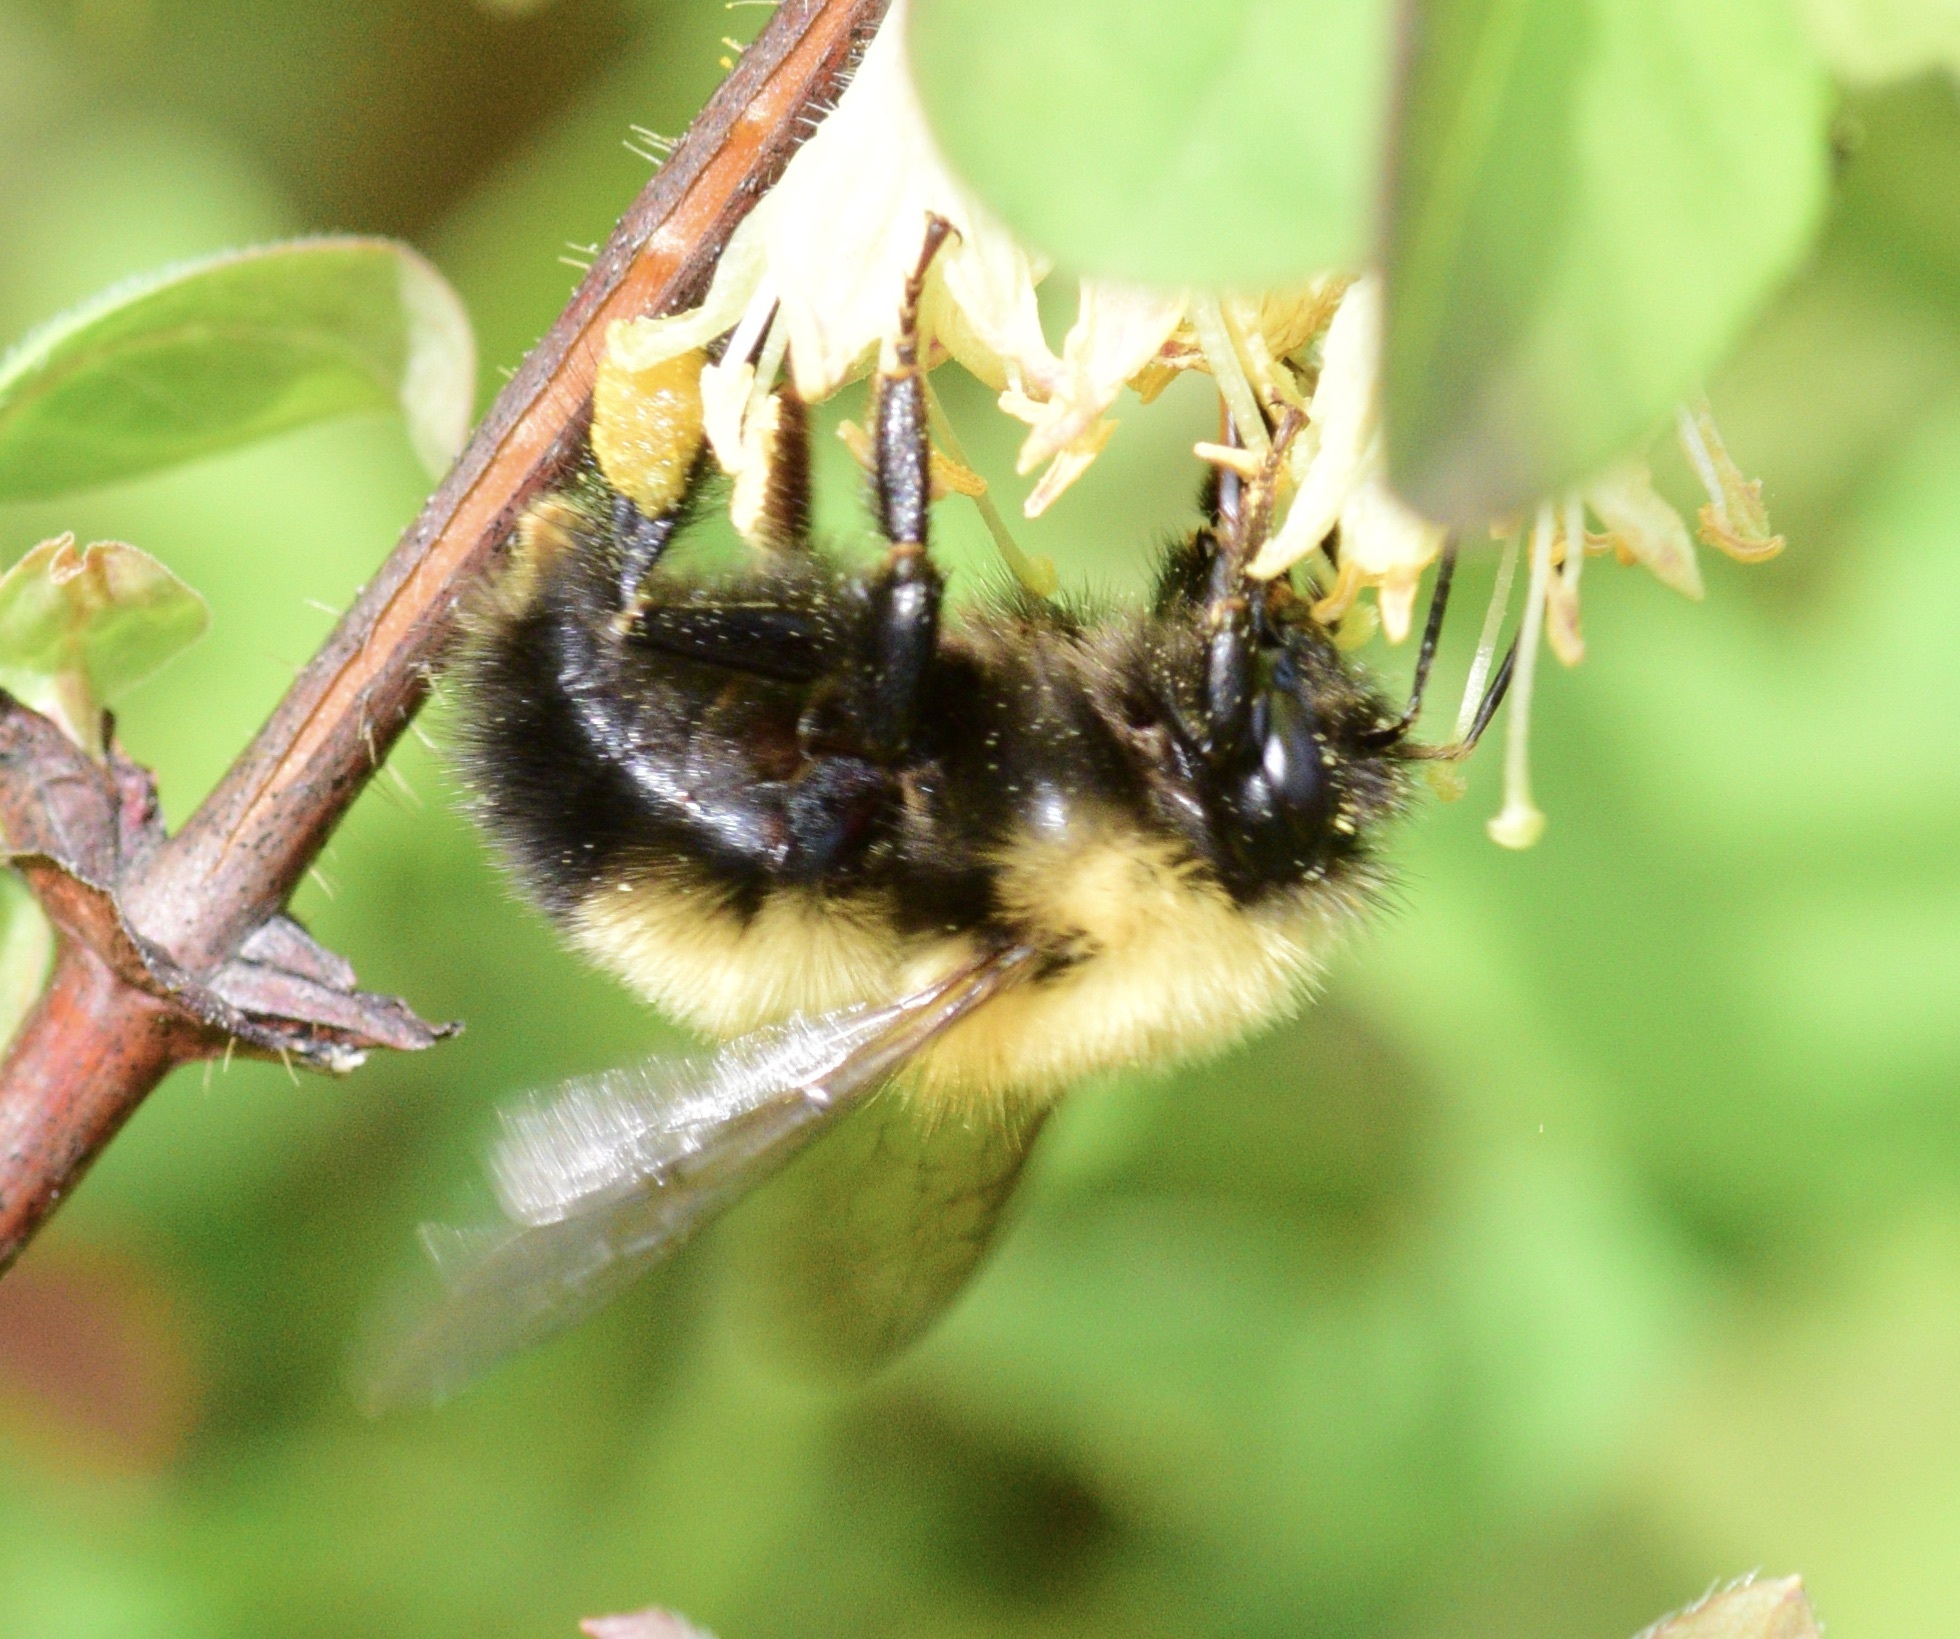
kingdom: Animalia
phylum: Arthropoda
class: Insecta
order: Hymenoptera
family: Apidae
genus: Bombus
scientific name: Bombus perplexus
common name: Confusing bumble bee
